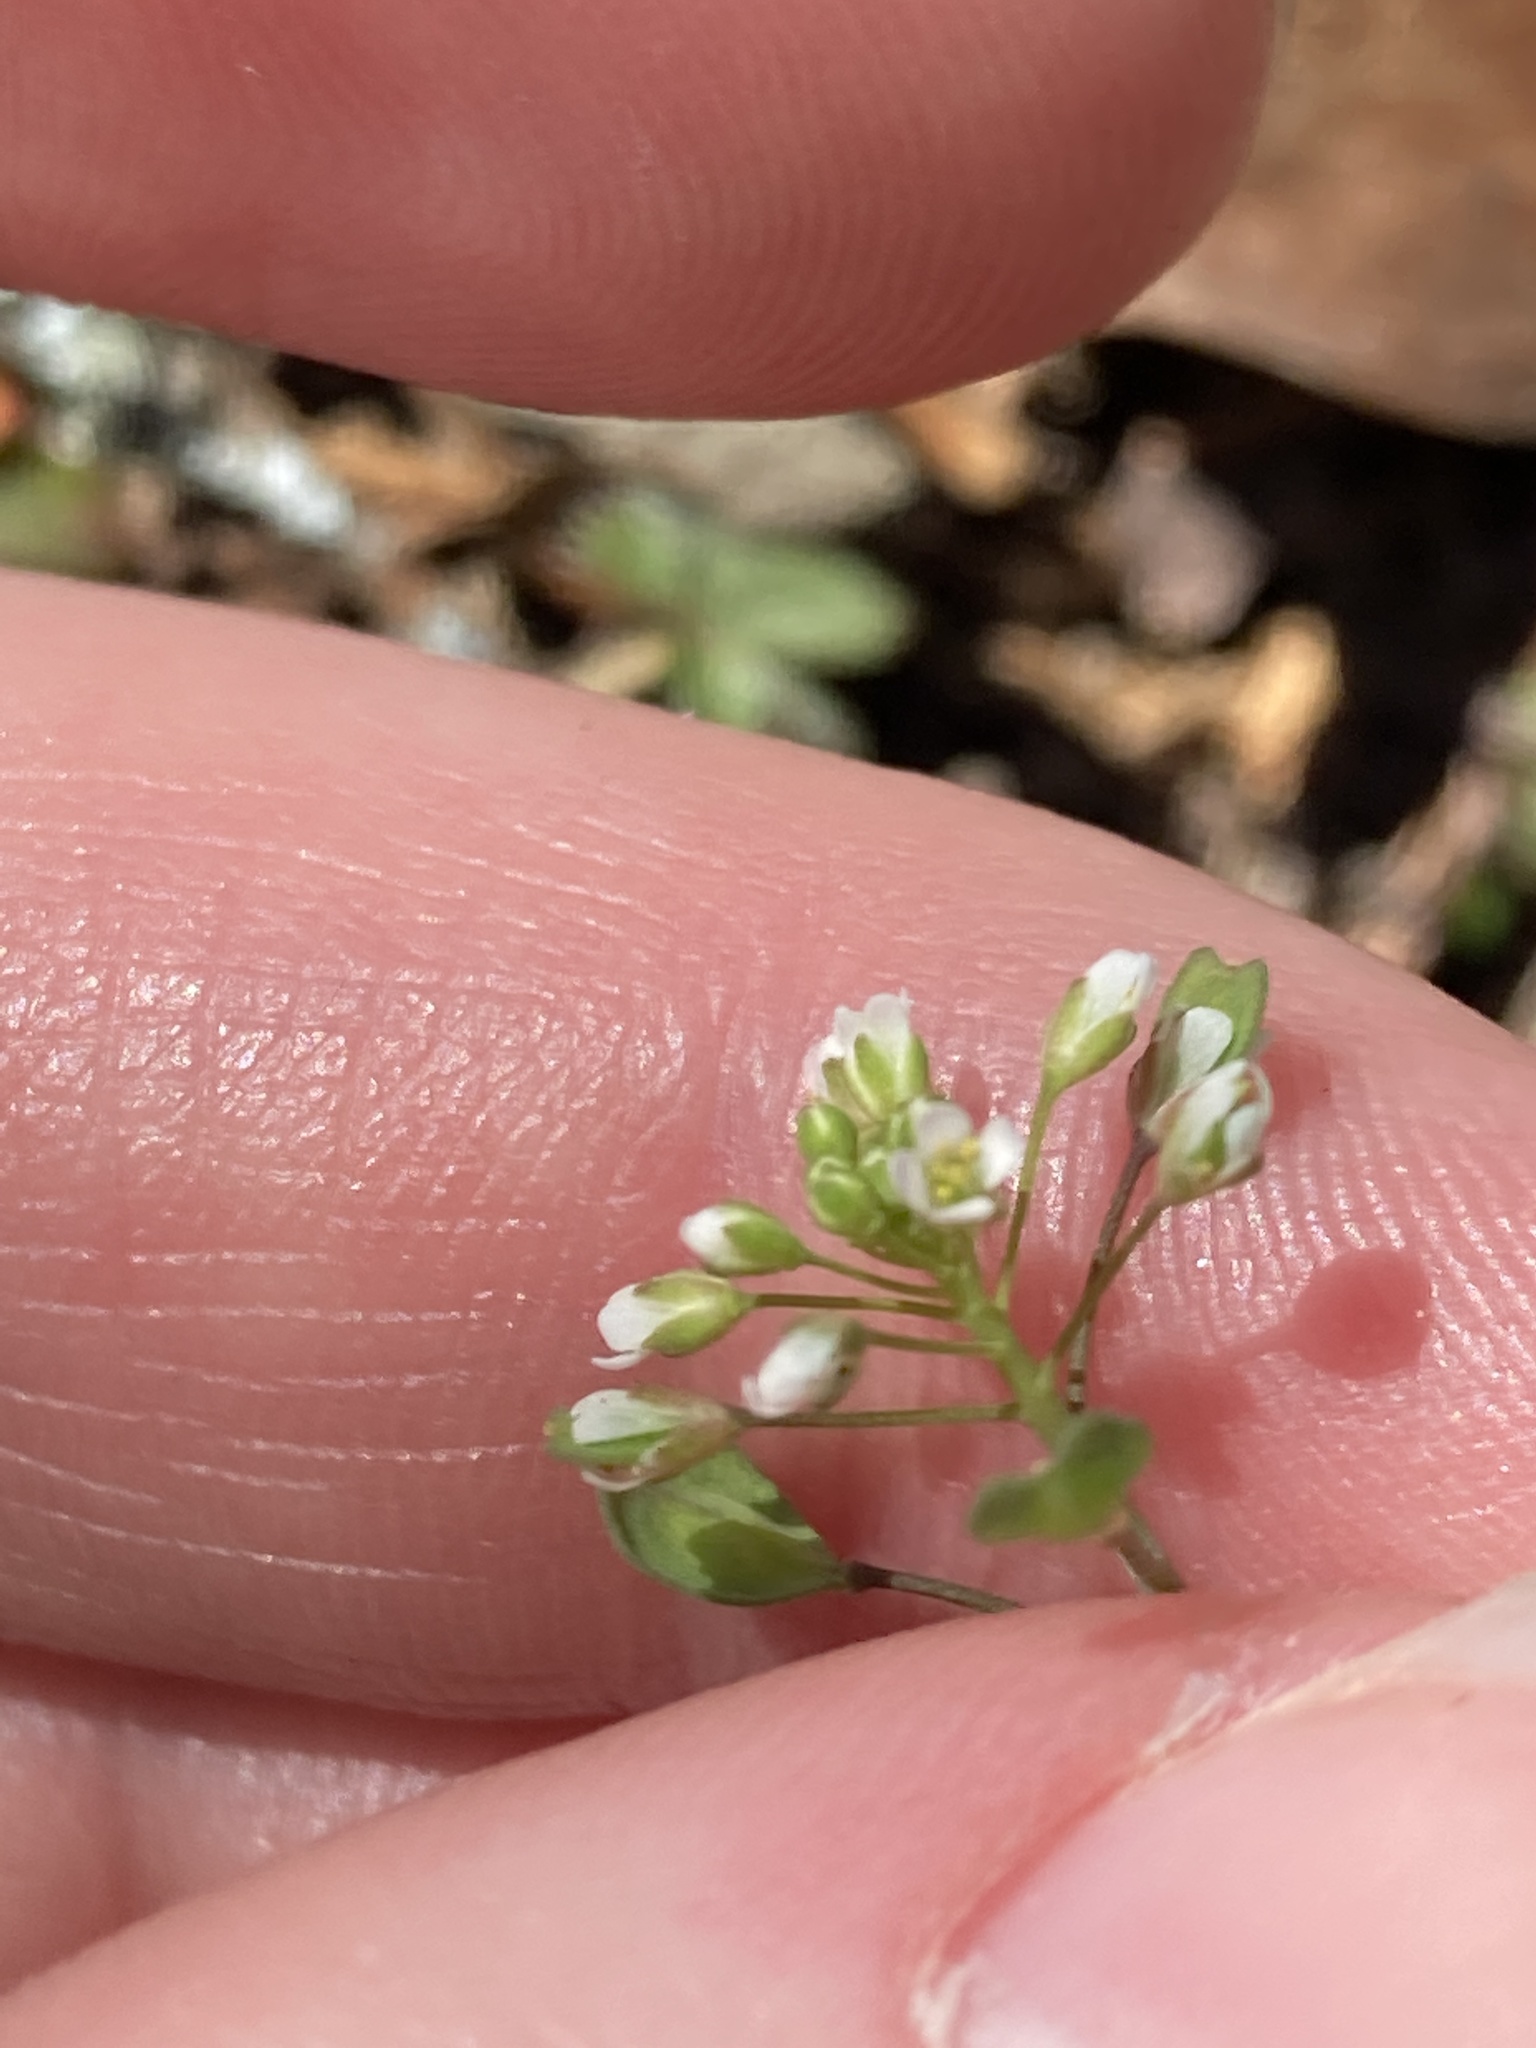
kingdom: Plantae
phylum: Tracheophyta
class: Magnoliopsida
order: Brassicales
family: Brassicaceae
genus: Noccaea
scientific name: Noccaea perfoliata
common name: Perfoliate pennycress
